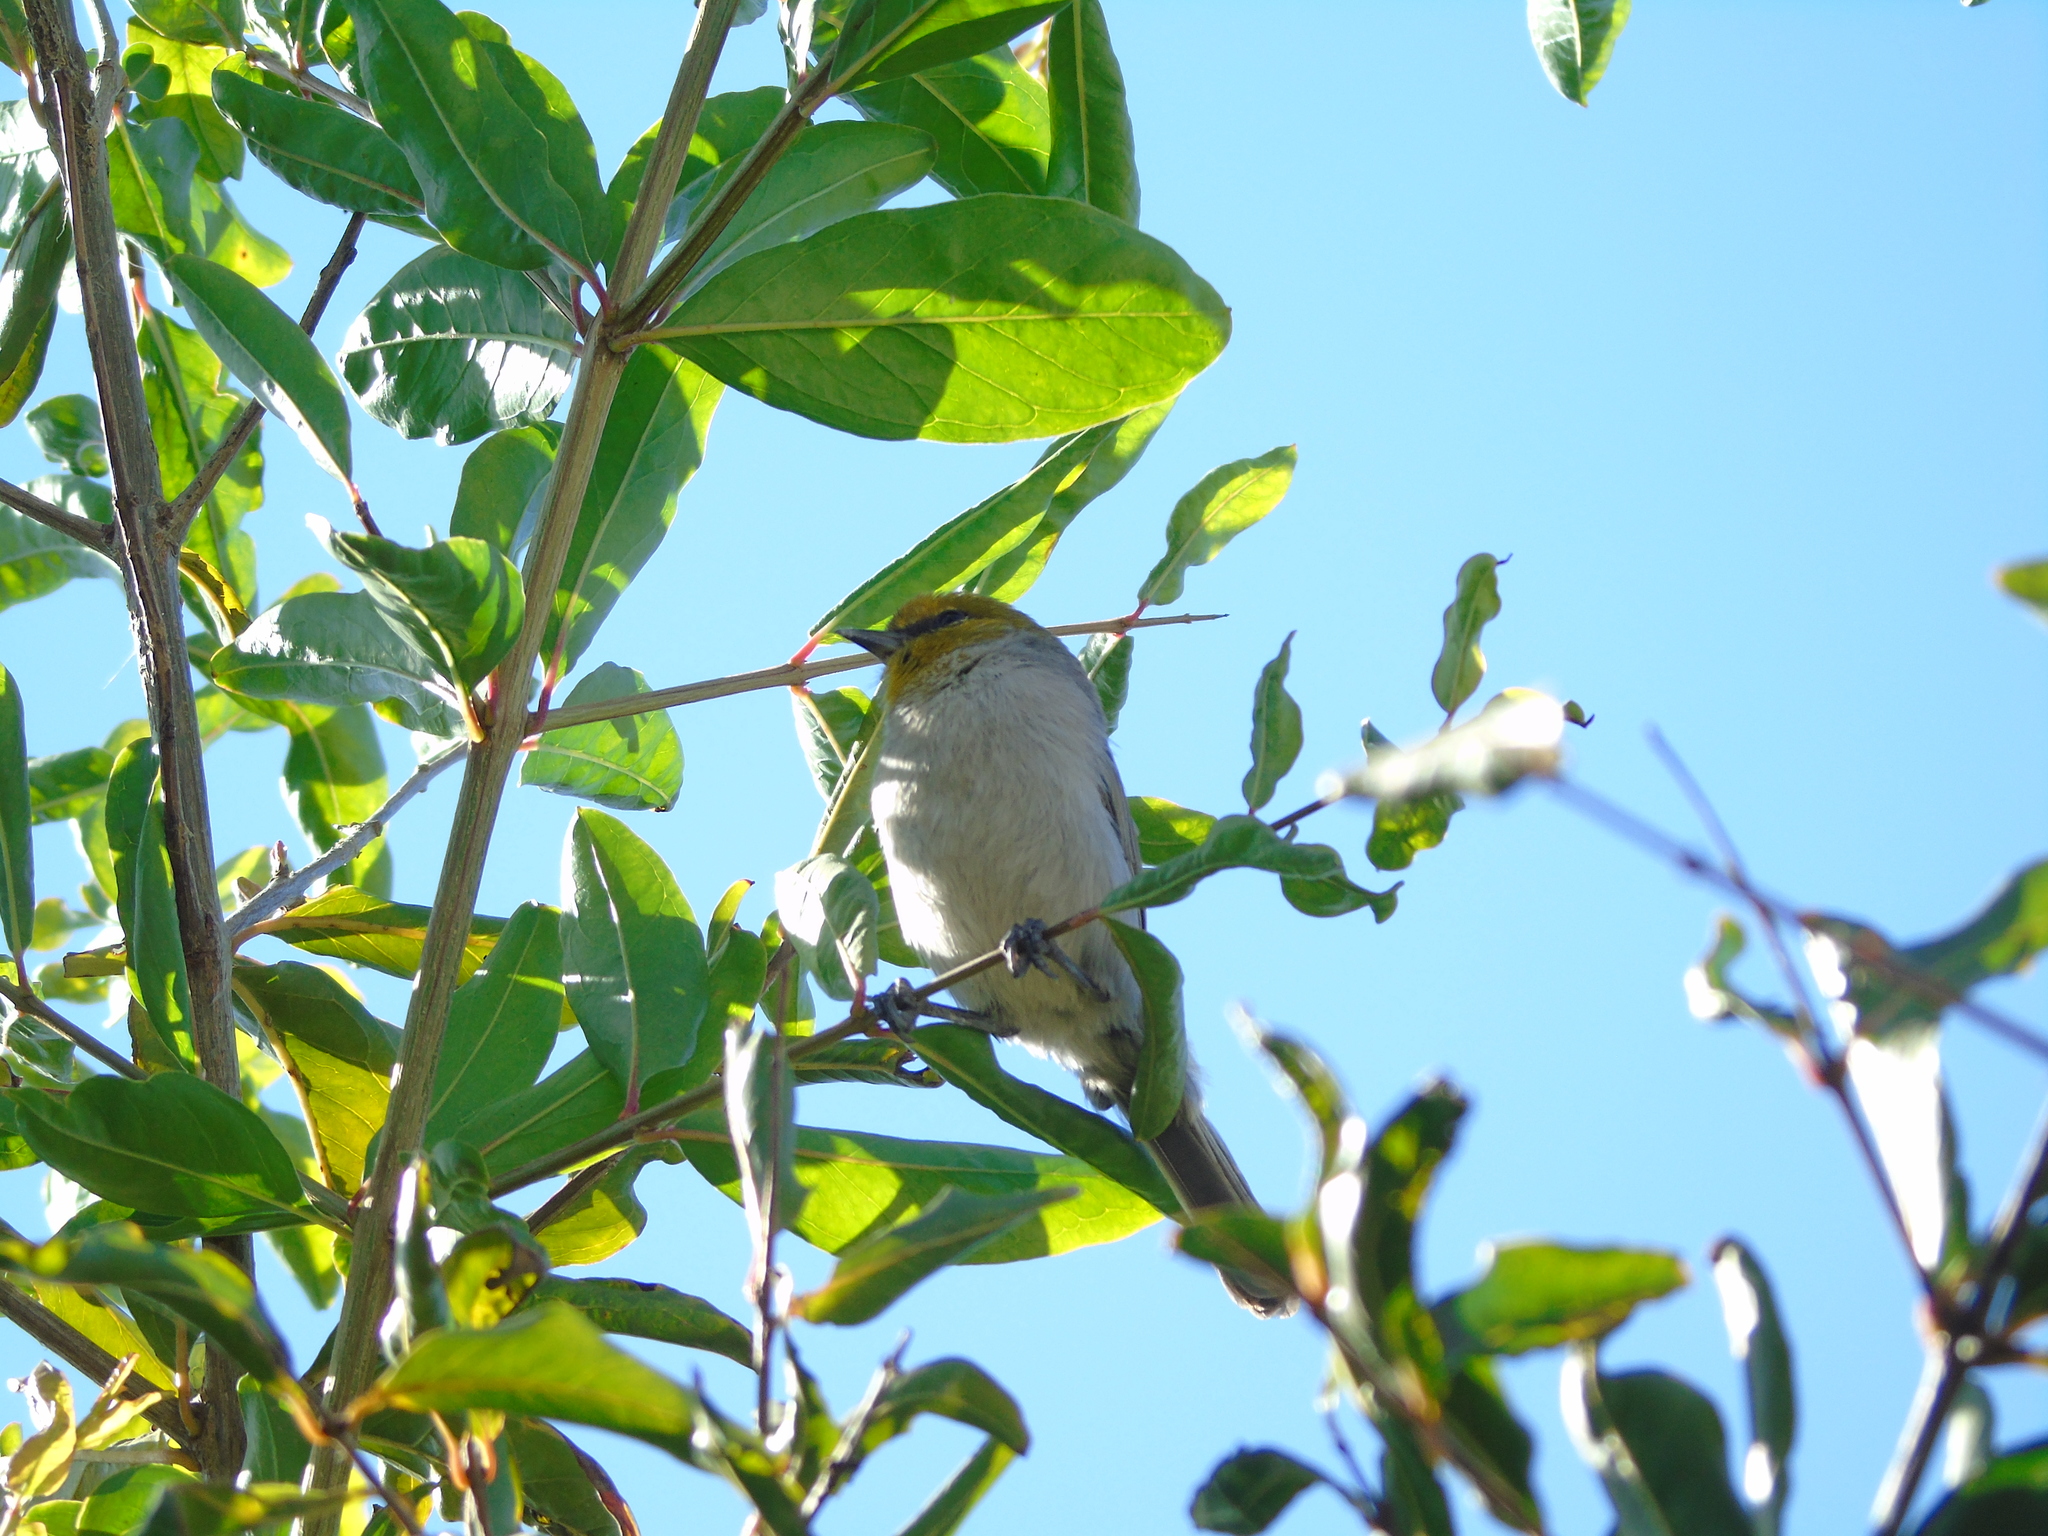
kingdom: Animalia
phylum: Chordata
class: Aves
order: Passeriformes
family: Remizidae
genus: Auriparus
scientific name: Auriparus flaviceps
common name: Verdin
